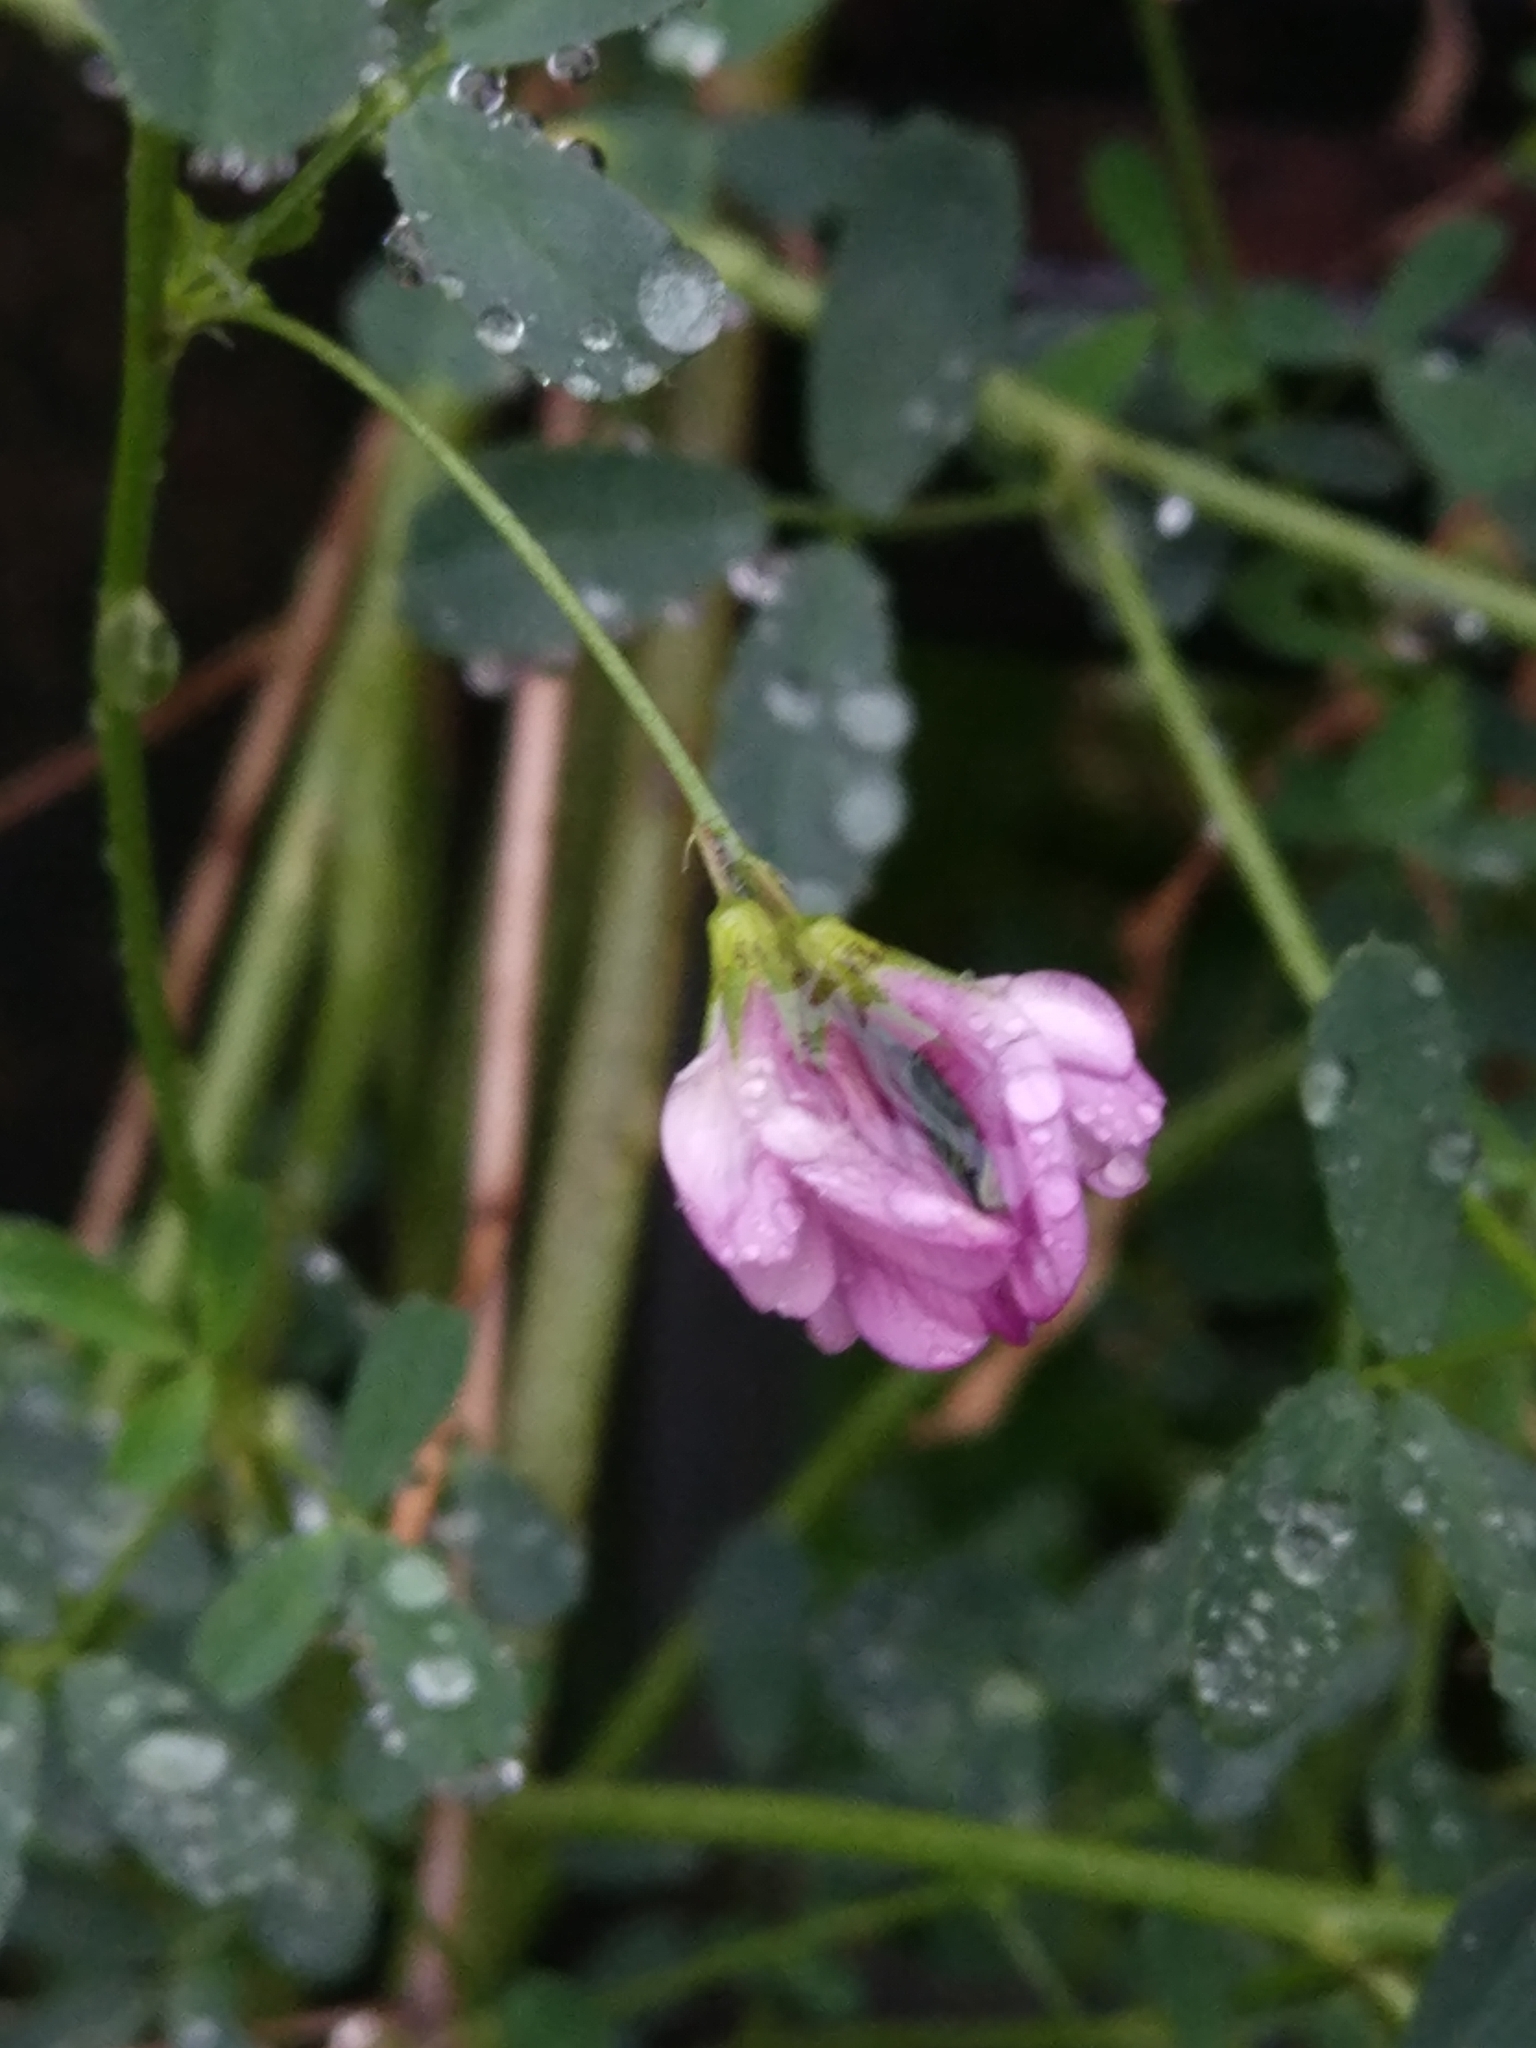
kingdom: Plantae
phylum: Tracheophyta
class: Magnoliopsida
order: Fabales
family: Fabaceae
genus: Medicago
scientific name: Medicago varia
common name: Sand lucerne
